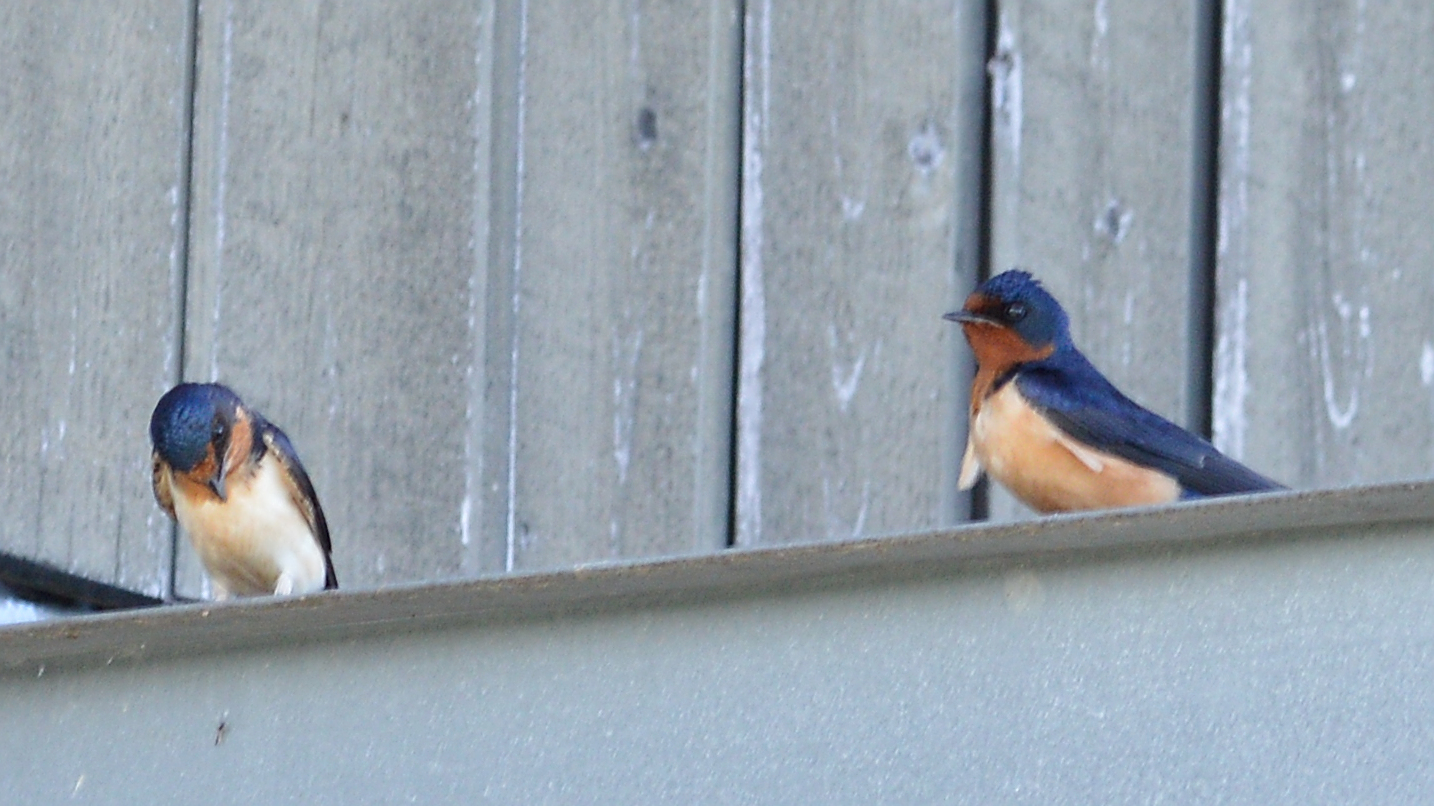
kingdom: Animalia
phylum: Chordata
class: Aves
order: Passeriformes
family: Hirundinidae
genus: Hirundo
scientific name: Hirundo rustica
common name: Barn swallow
